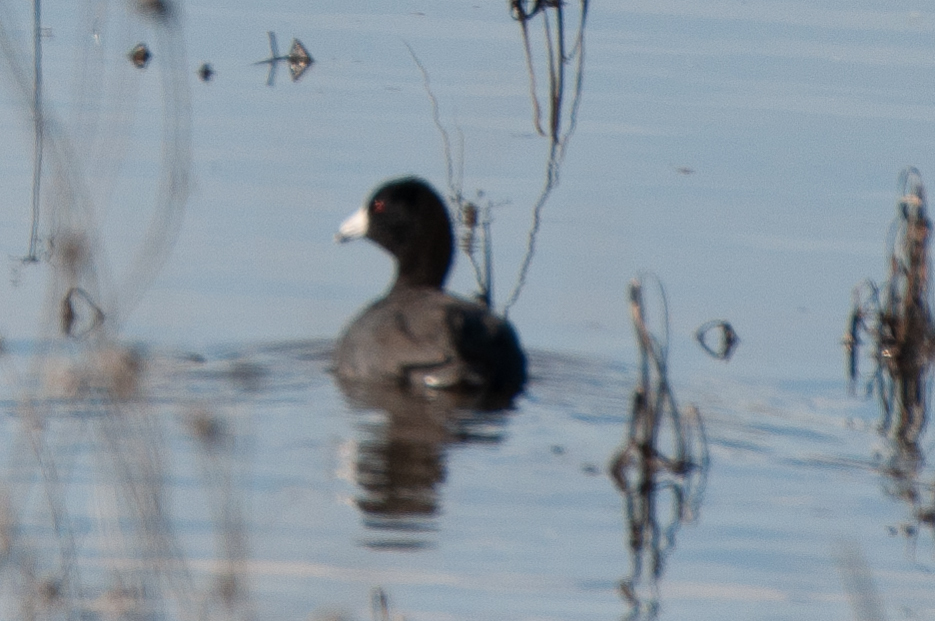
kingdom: Animalia
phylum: Chordata
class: Aves
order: Gruiformes
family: Rallidae
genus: Fulica
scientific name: Fulica americana
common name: American coot
